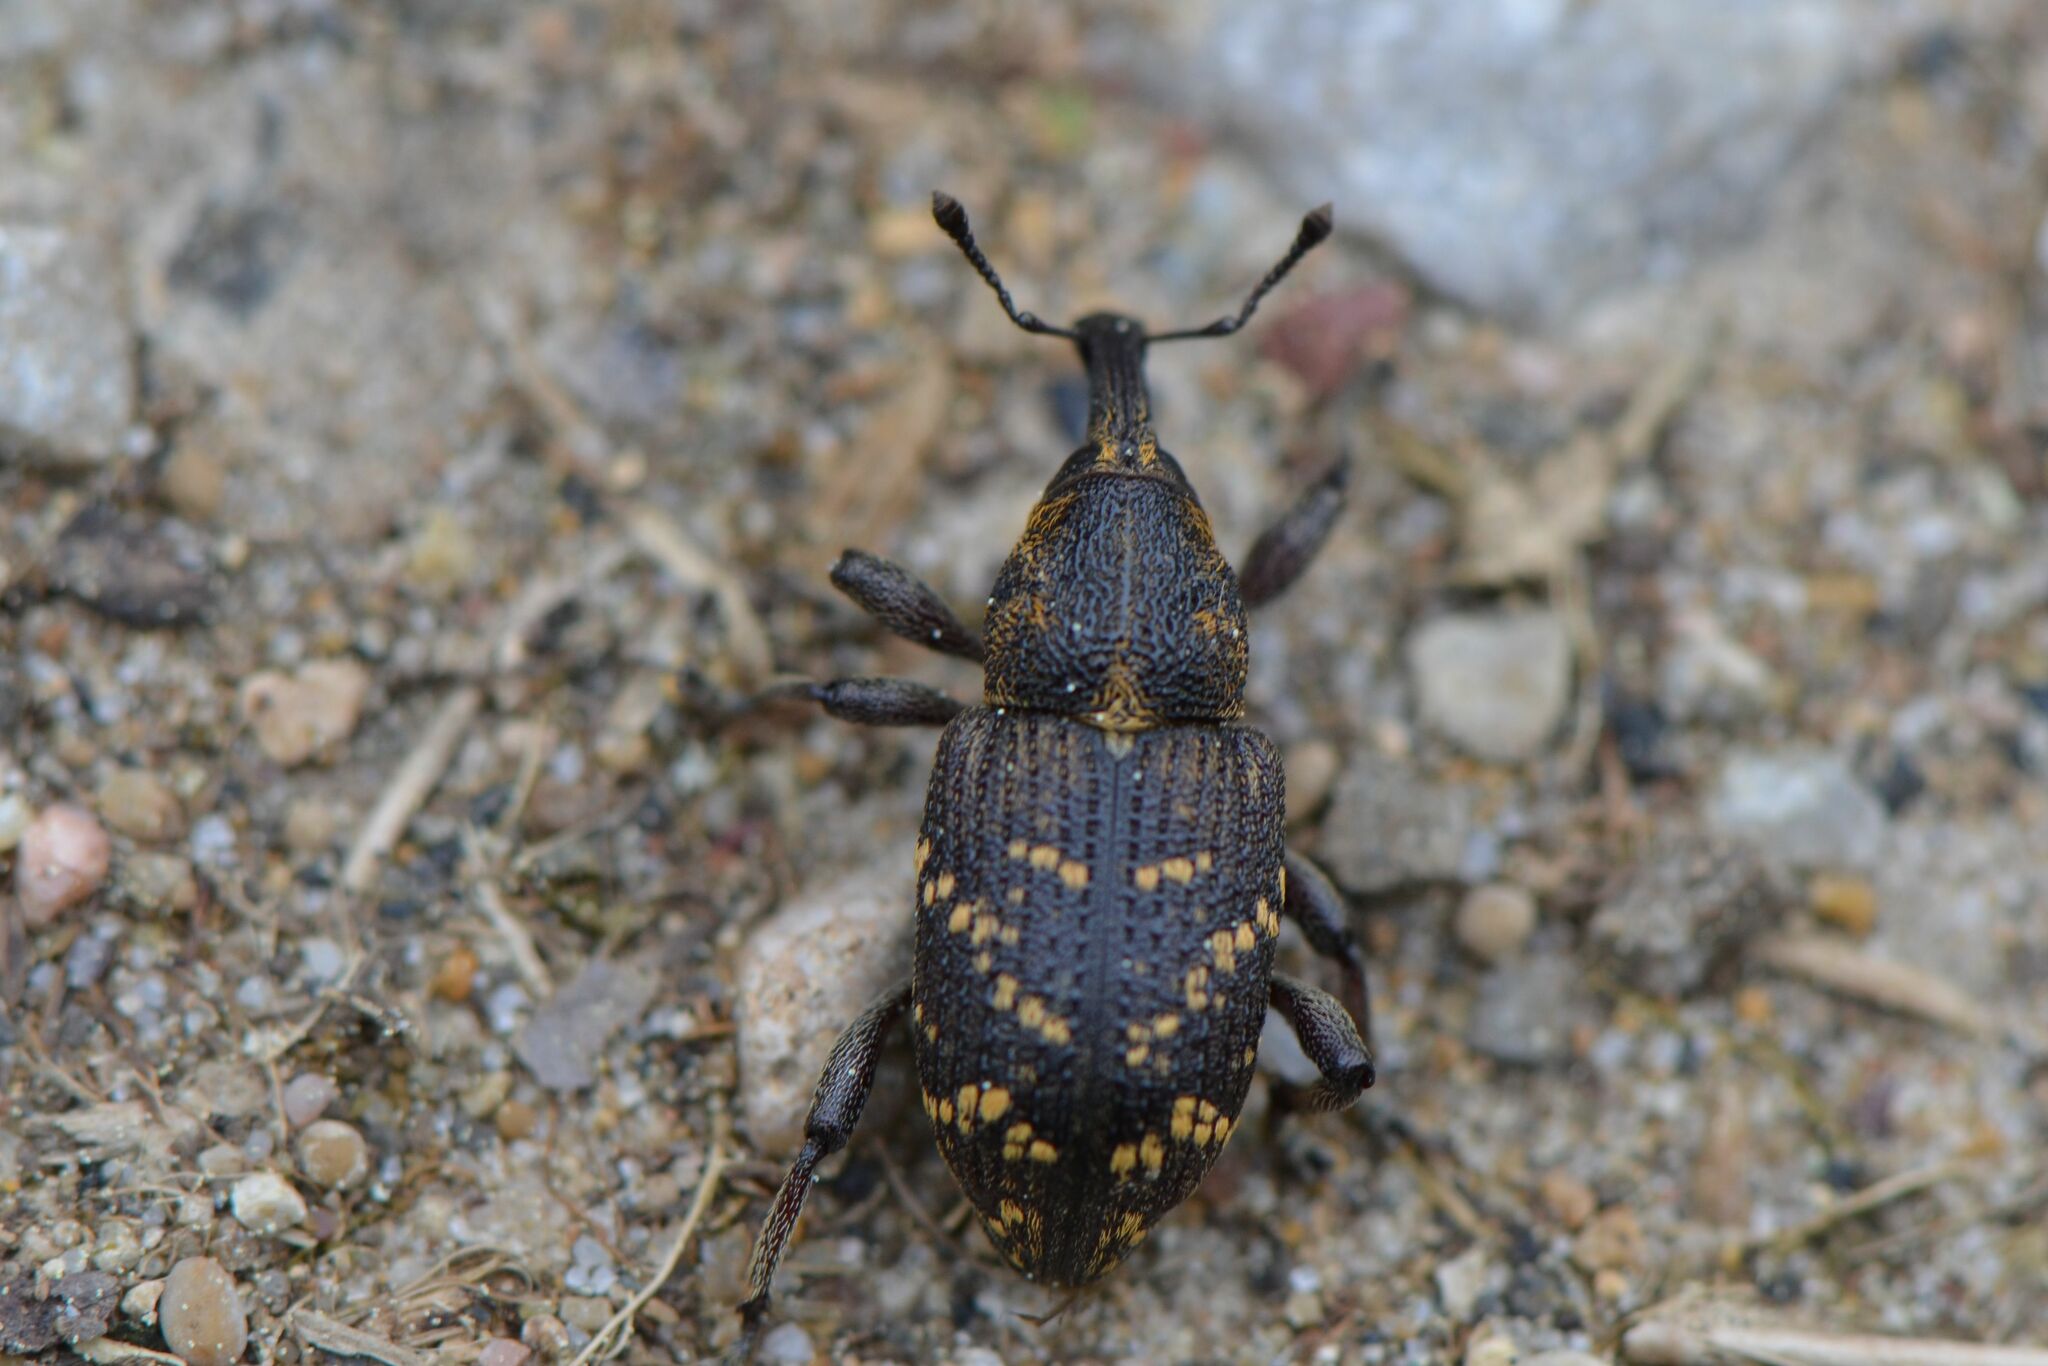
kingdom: Animalia
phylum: Arthropoda
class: Insecta
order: Coleoptera
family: Curculionidae
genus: Hylobius
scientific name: Hylobius abietis
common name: Large pine weevil
